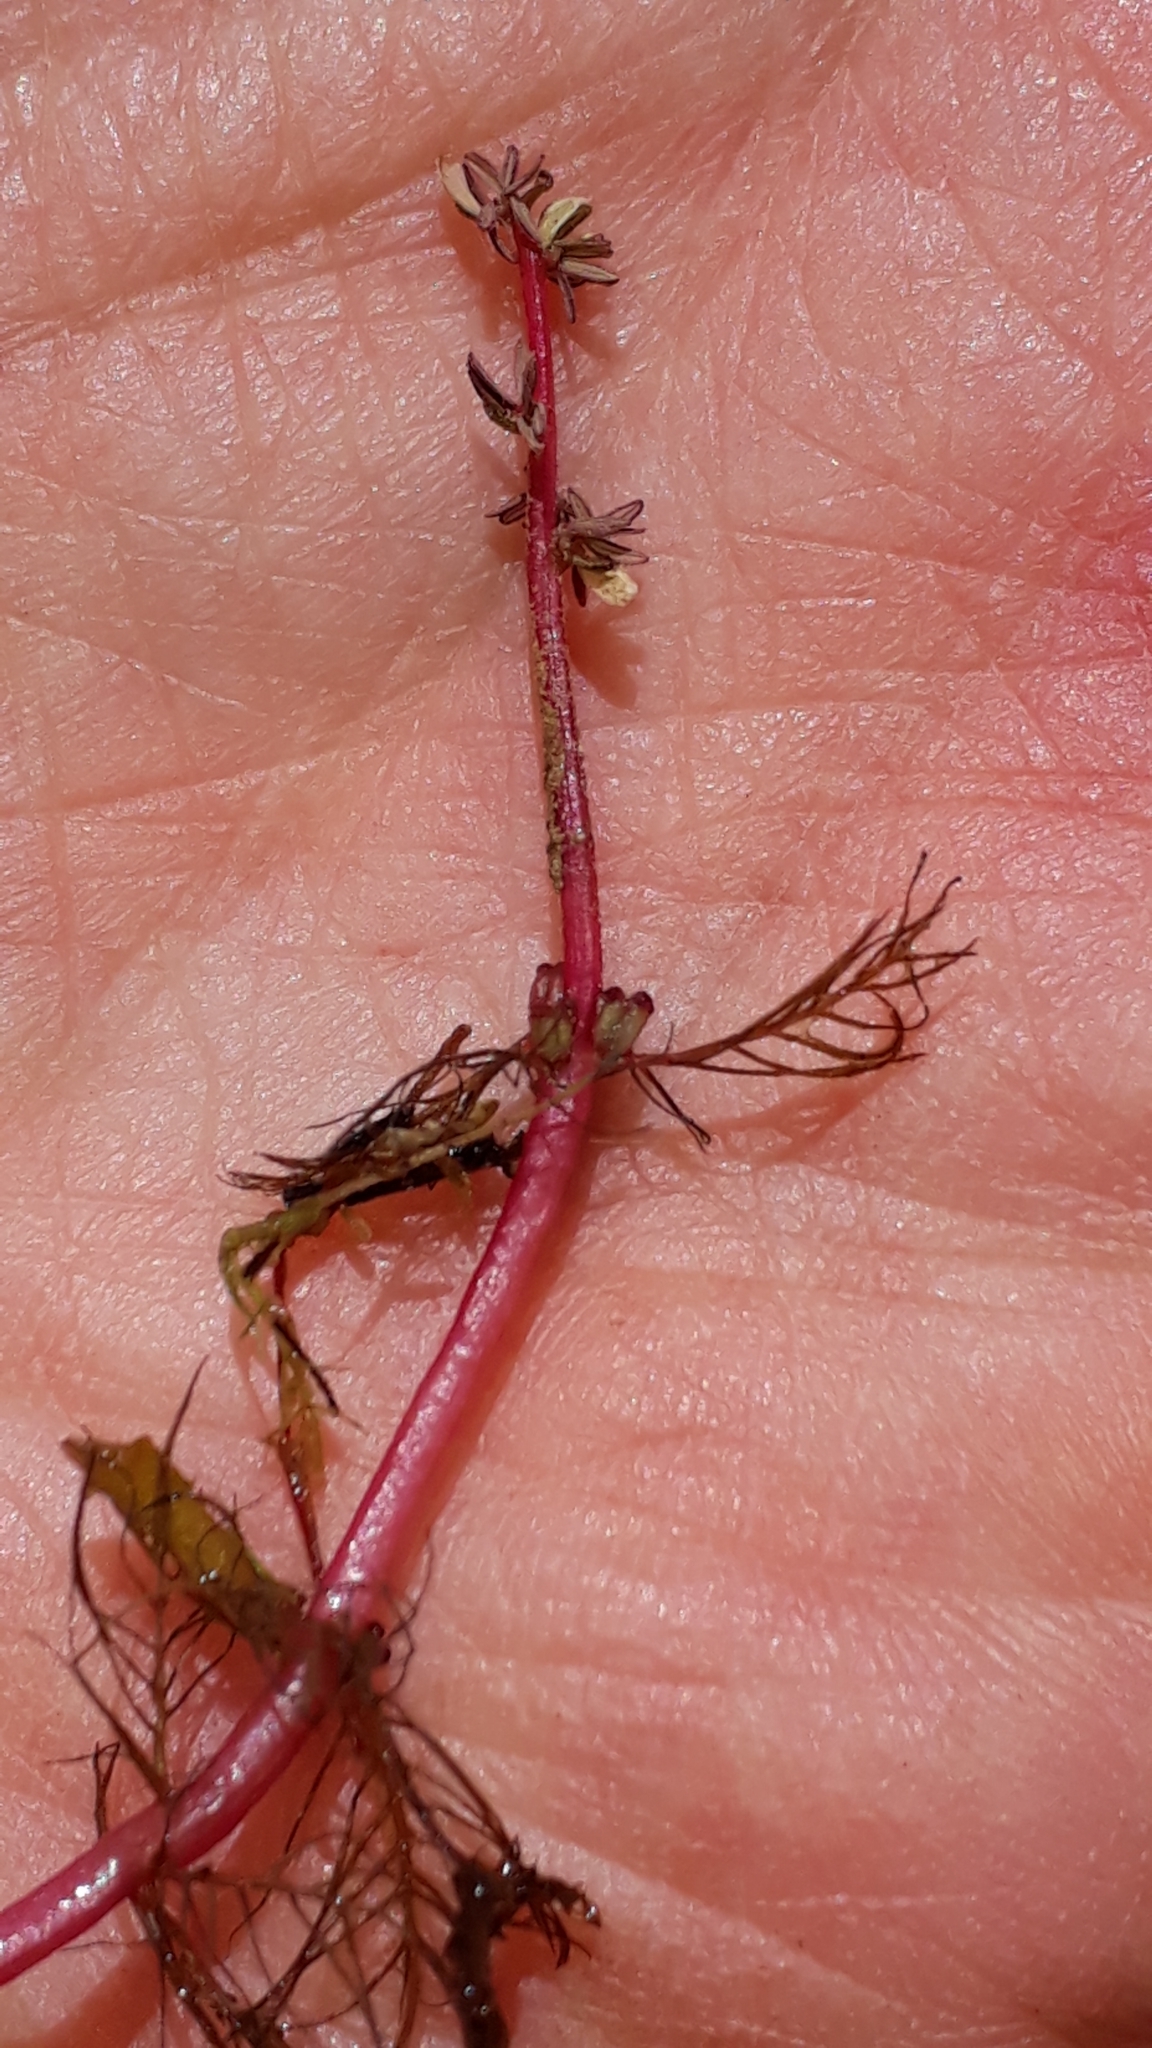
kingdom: Plantae
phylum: Tracheophyta
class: Magnoliopsida
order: Saxifragales
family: Haloragaceae
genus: Myriophyllum
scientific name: Myriophyllum alterniflorum
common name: Alternate water-milfoil
